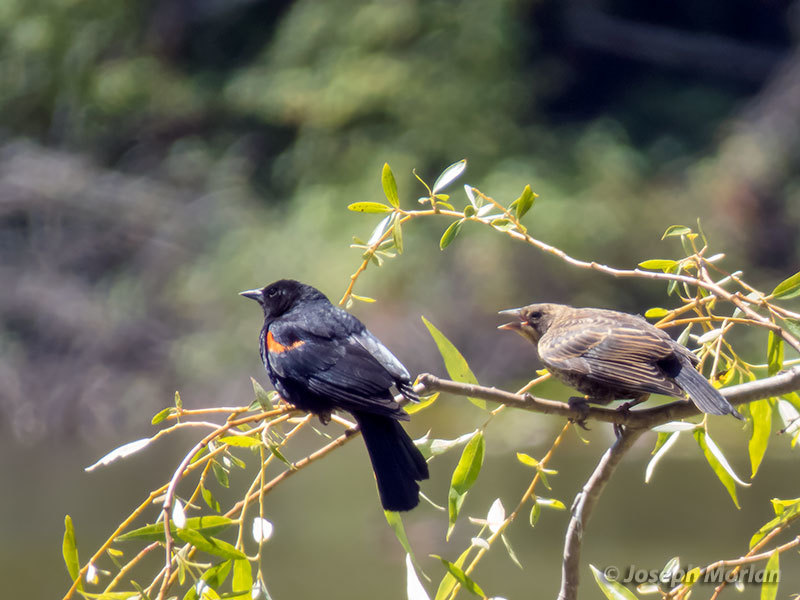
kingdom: Animalia
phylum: Chordata
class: Aves
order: Passeriformes
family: Icteridae
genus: Agelaius
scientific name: Agelaius phoeniceus
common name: Red-winged blackbird
